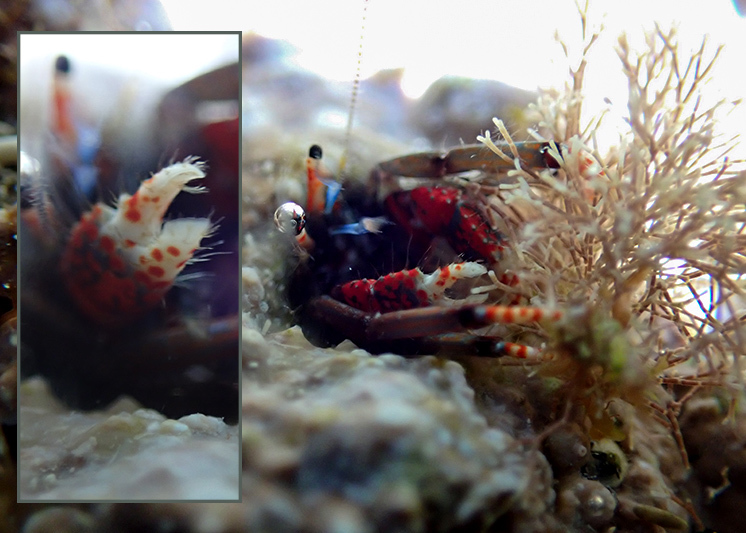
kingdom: Animalia
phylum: Arthropoda
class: Malacostraca
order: Decapoda
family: Diogenidae
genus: Calcinus
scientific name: Calcinus tubularis
